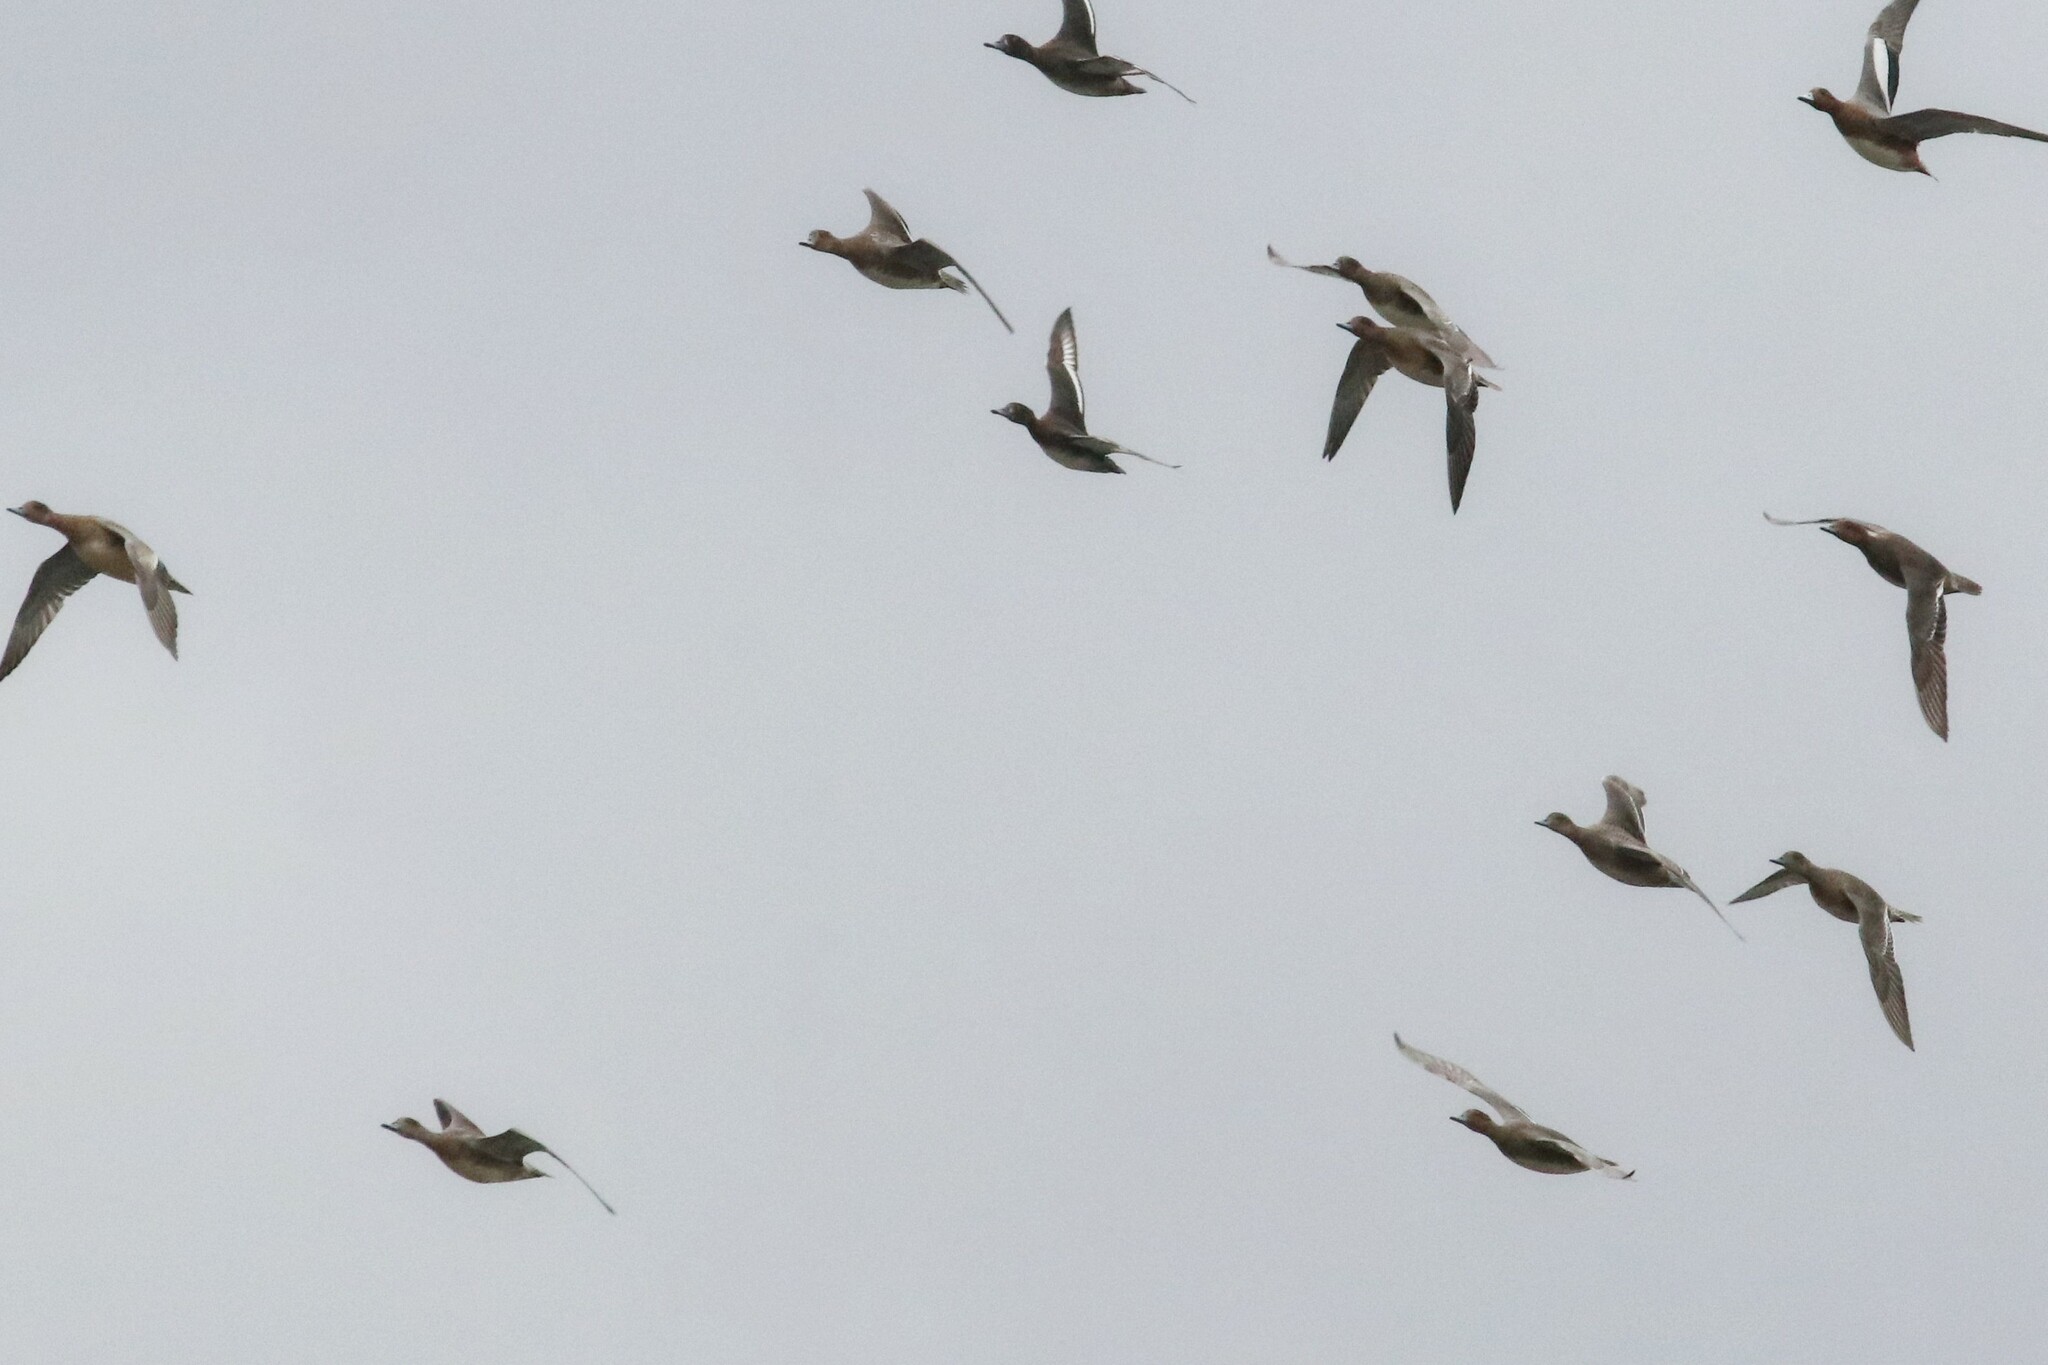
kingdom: Animalia
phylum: Chordata
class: Aves
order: Anseriformes
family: Anatidae
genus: Mareca
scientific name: Mareca penelope
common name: Eurasian wigeon
